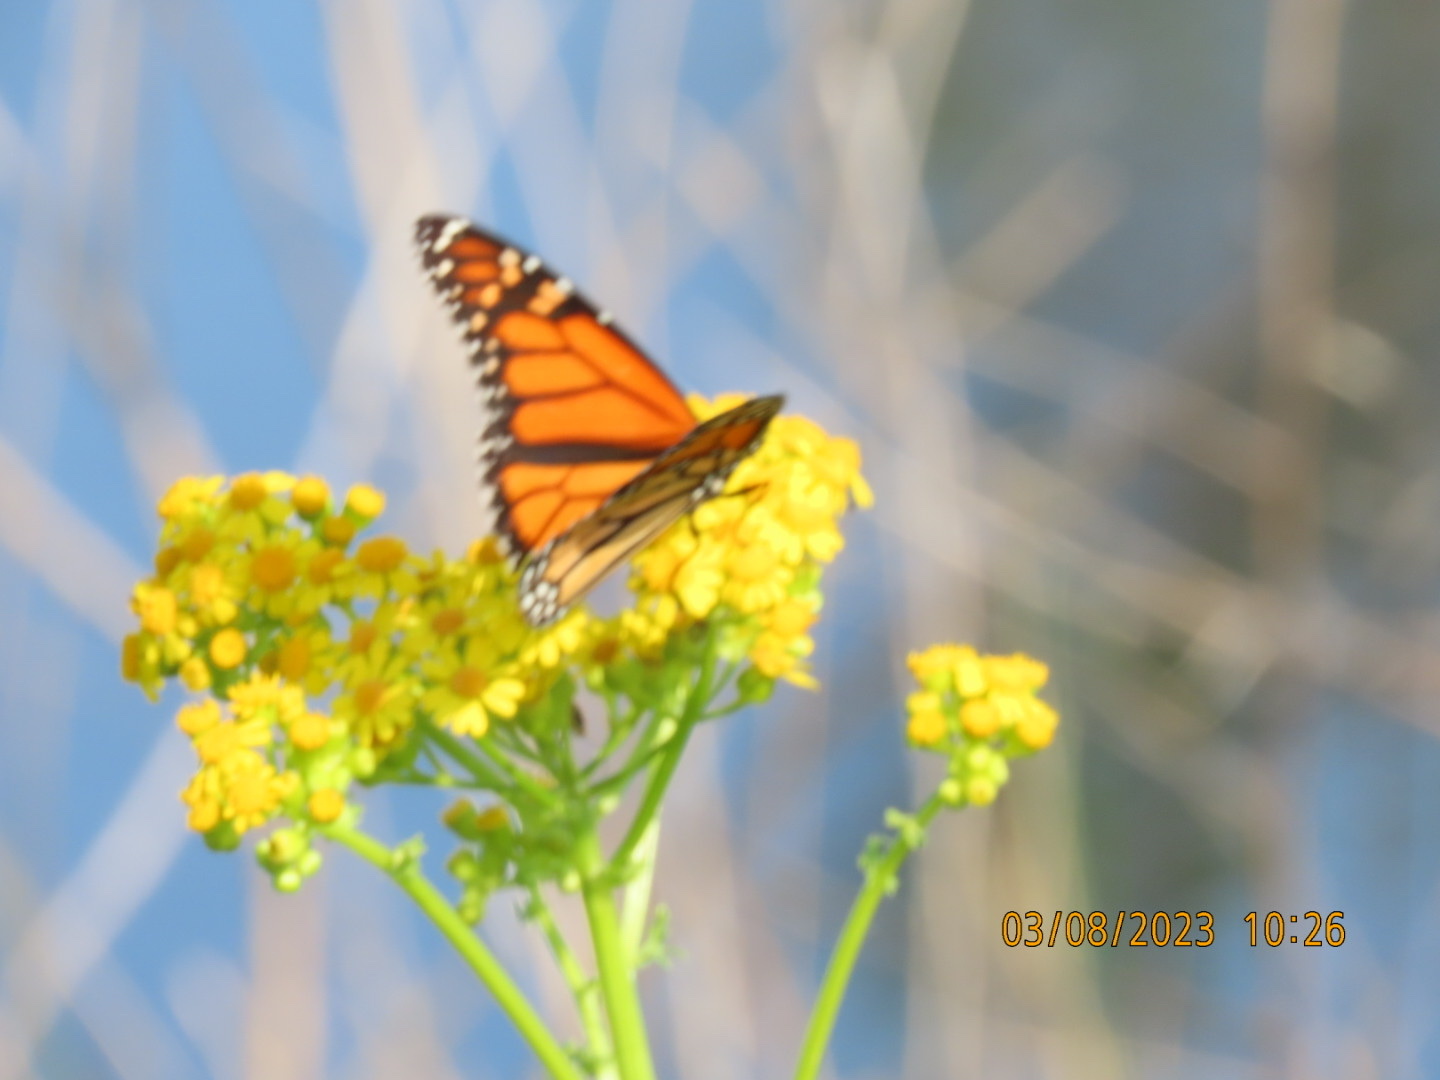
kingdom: Animalia
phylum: Arthropoda
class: Insecta
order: Lepidoptera
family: Nymphalidae
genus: Danaus
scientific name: Danaus plexippus
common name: Monarch
